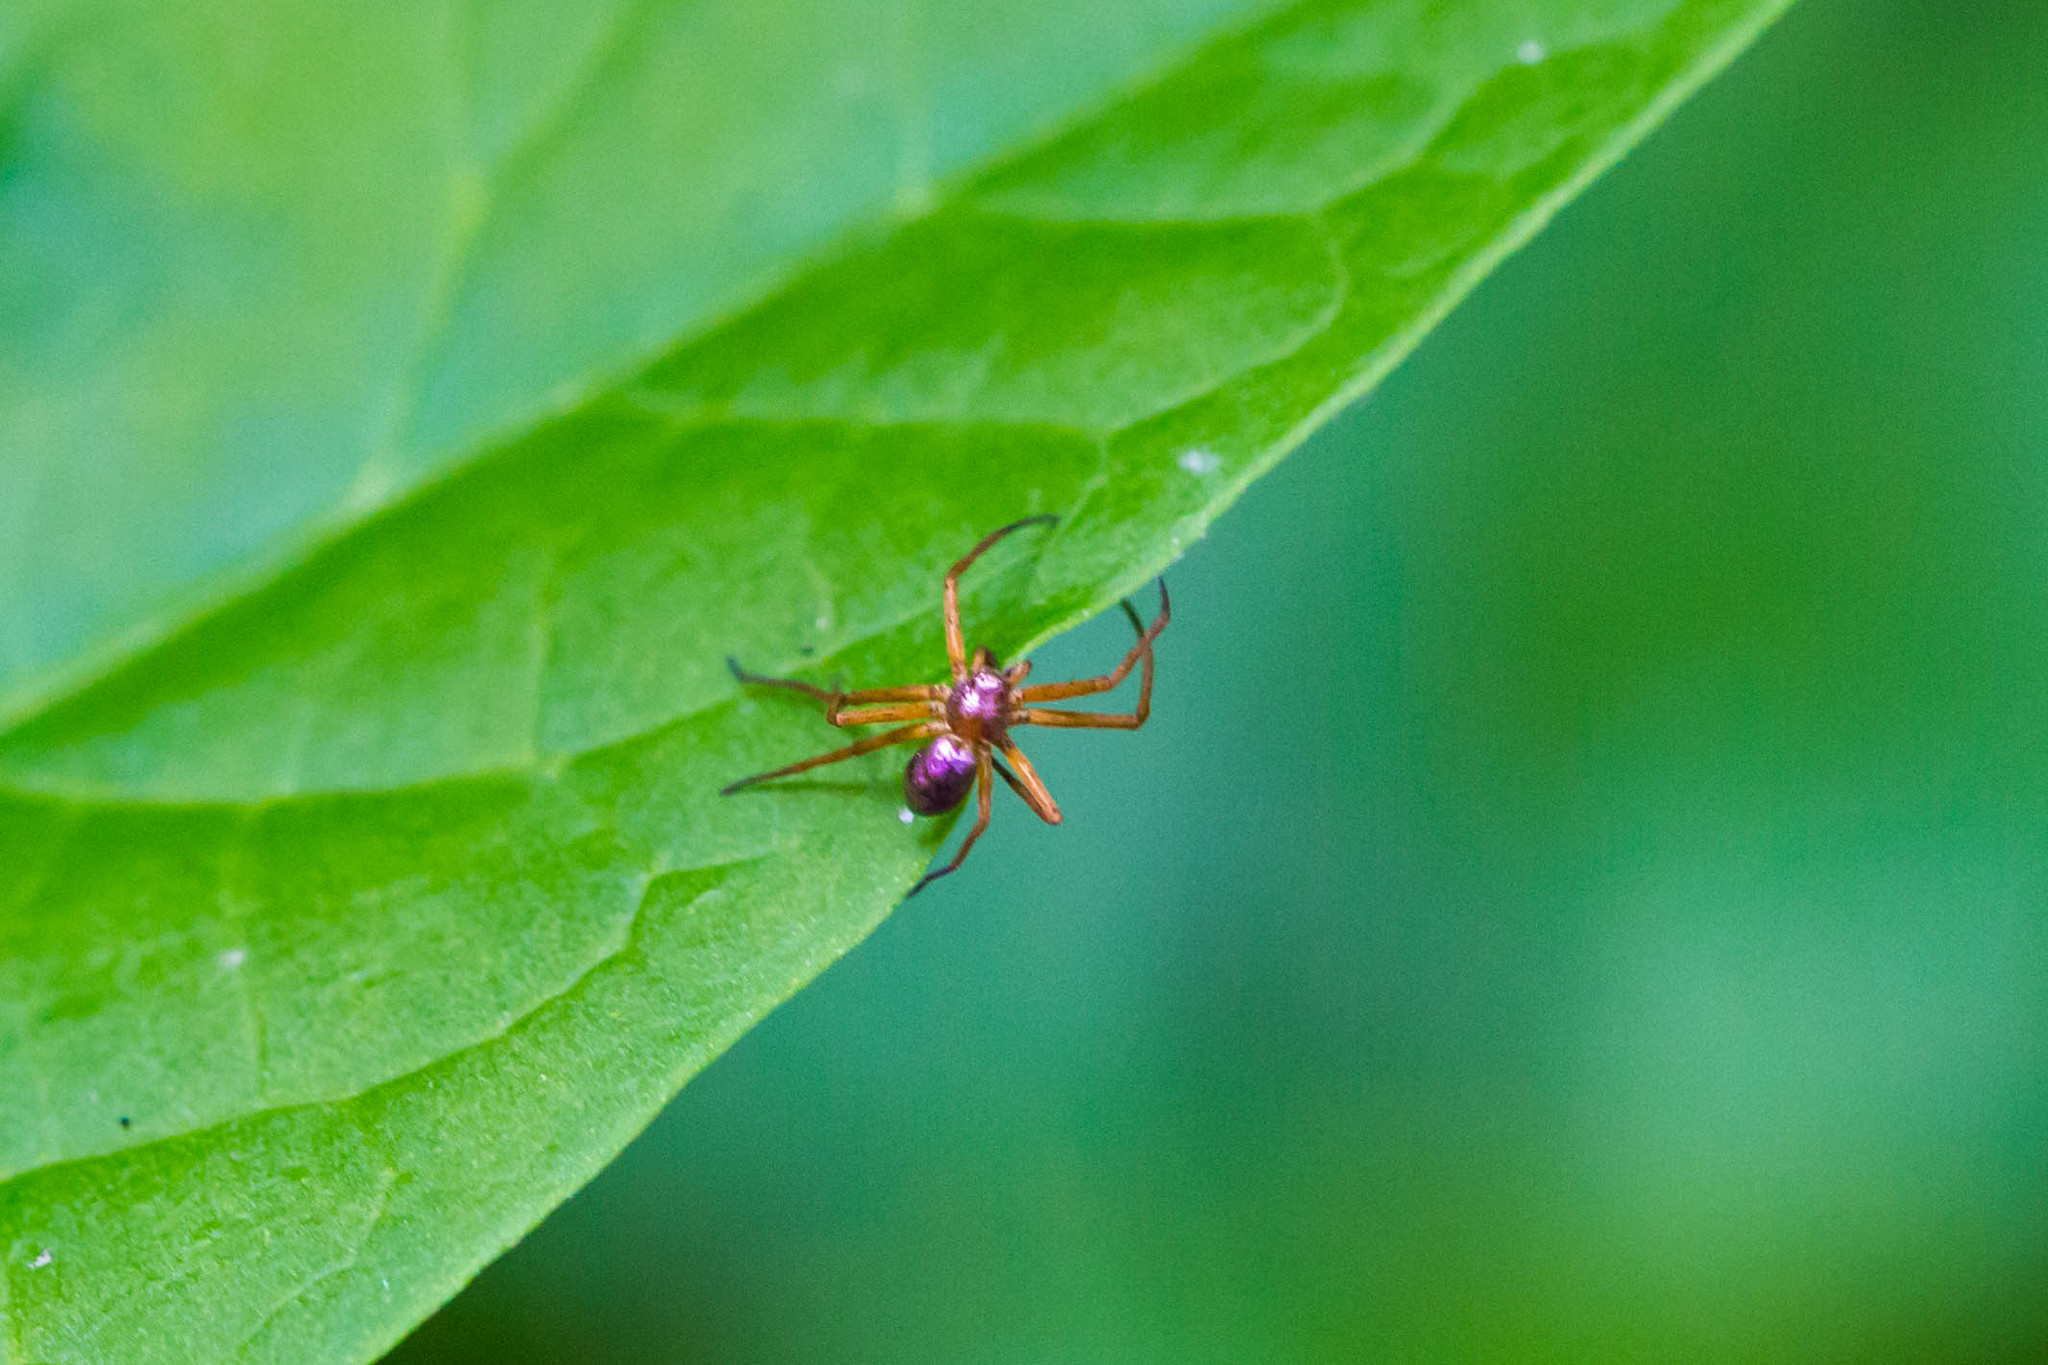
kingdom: Animalia
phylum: Arthropoda
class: Arachnida
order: Araneae
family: Philodromidae
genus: Philodromus
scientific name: Philodromus marxi
